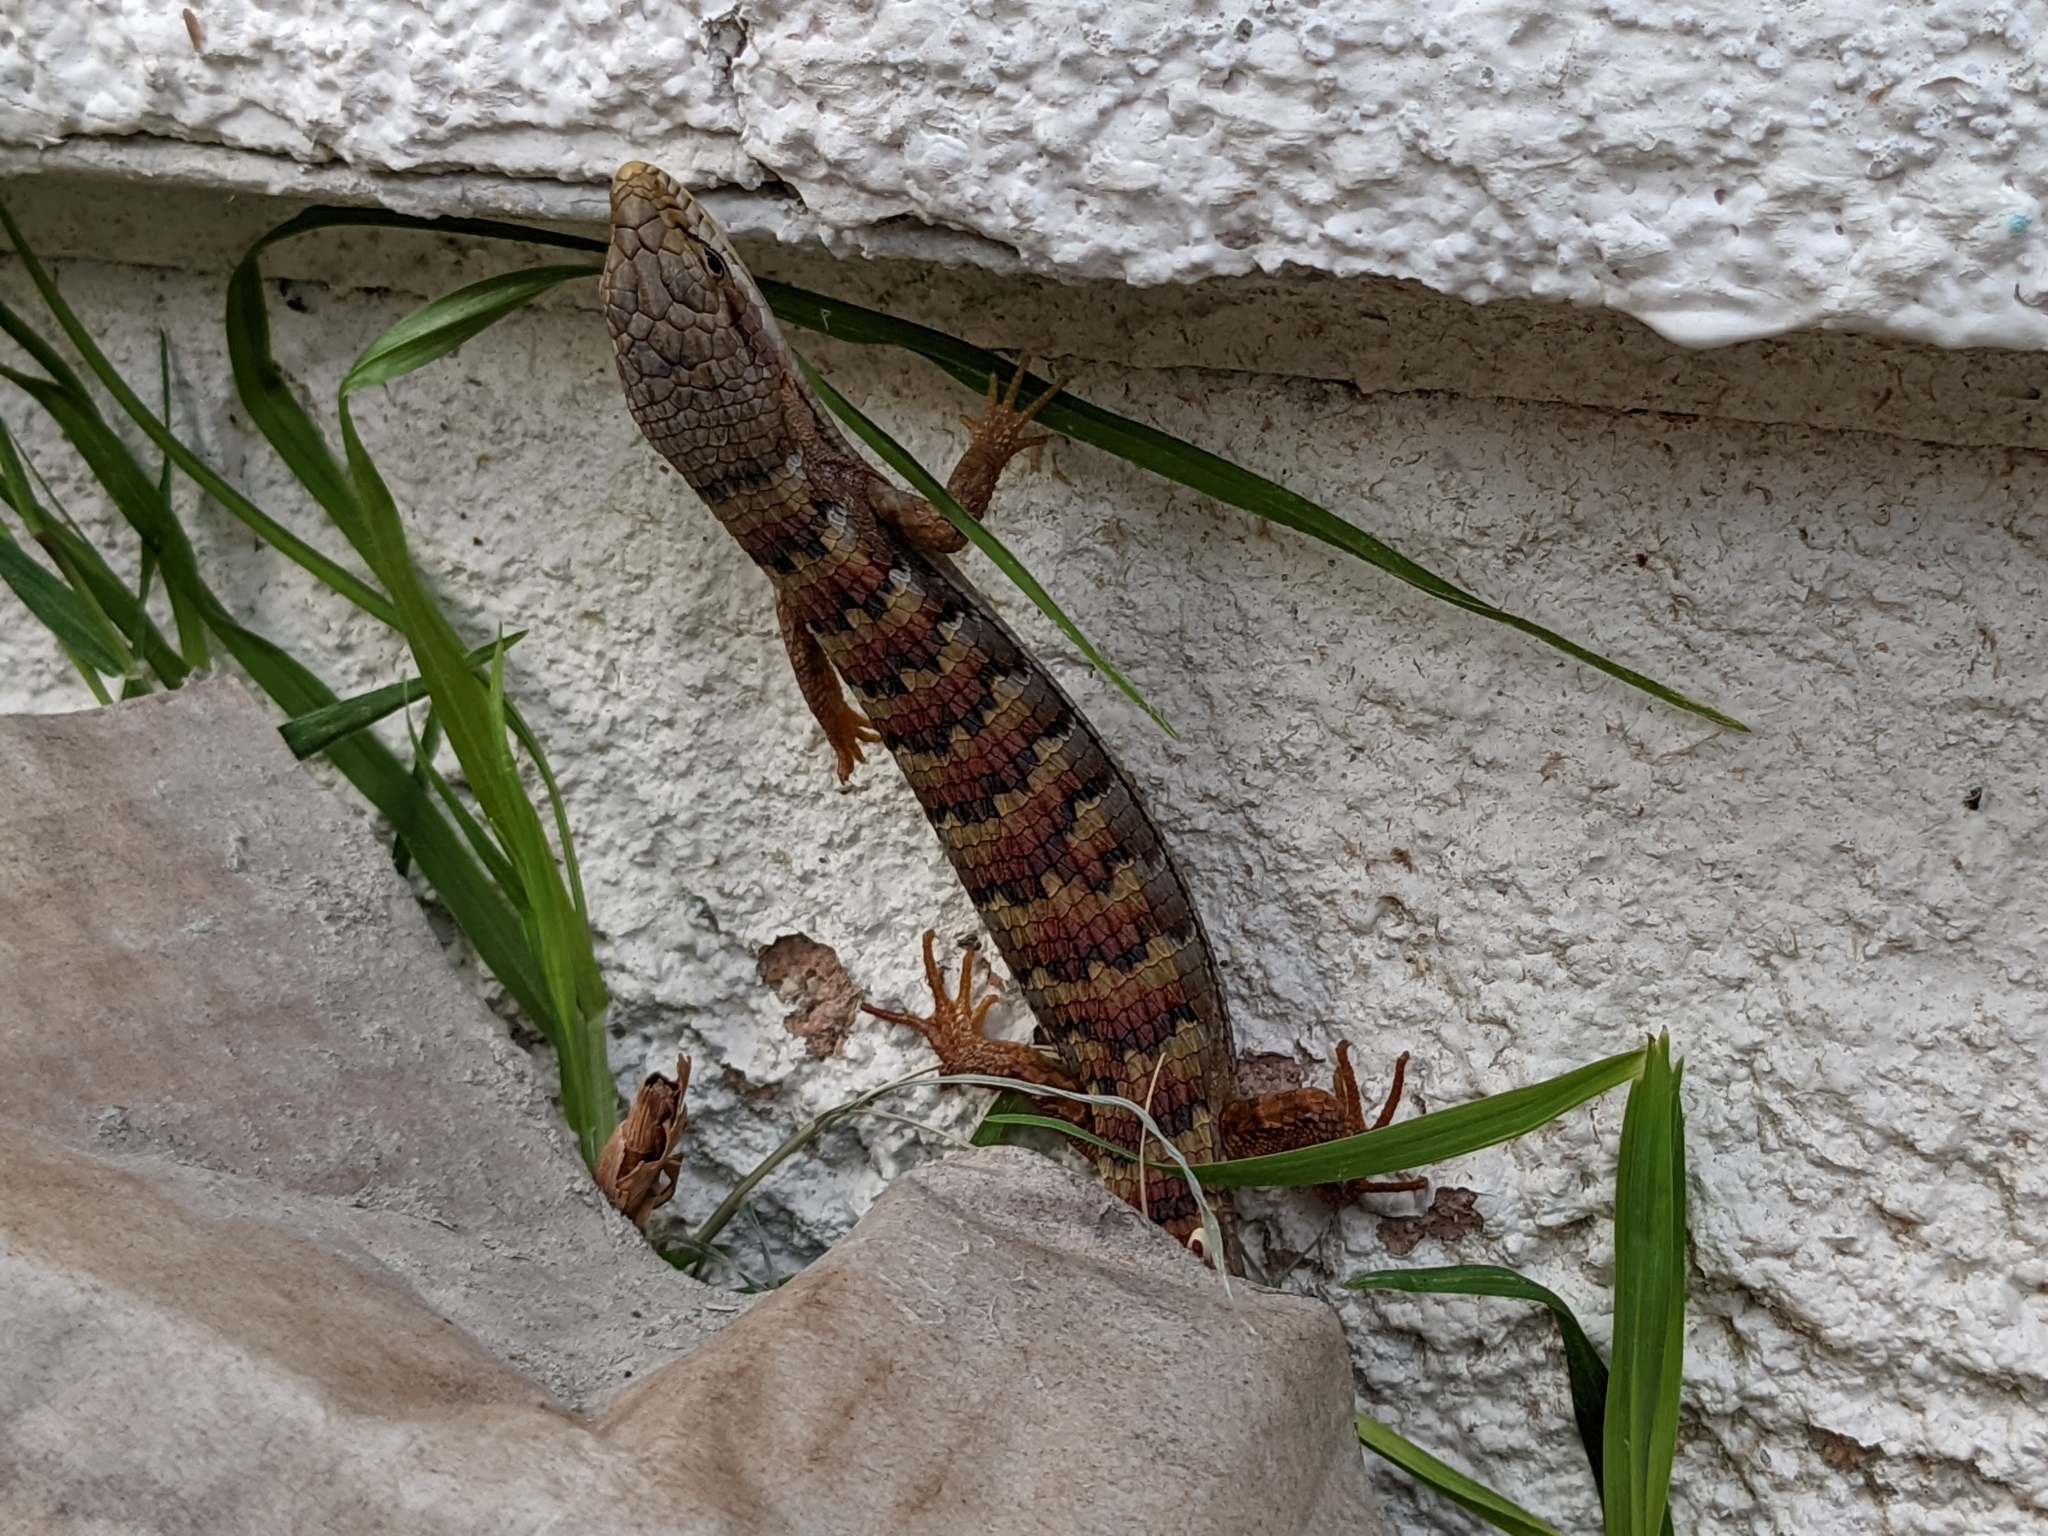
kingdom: Animalia
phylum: Chordata
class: Squamata
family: Anguidae
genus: Elgaria
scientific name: Elgaria multicarinata
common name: Southern alligator lizard
